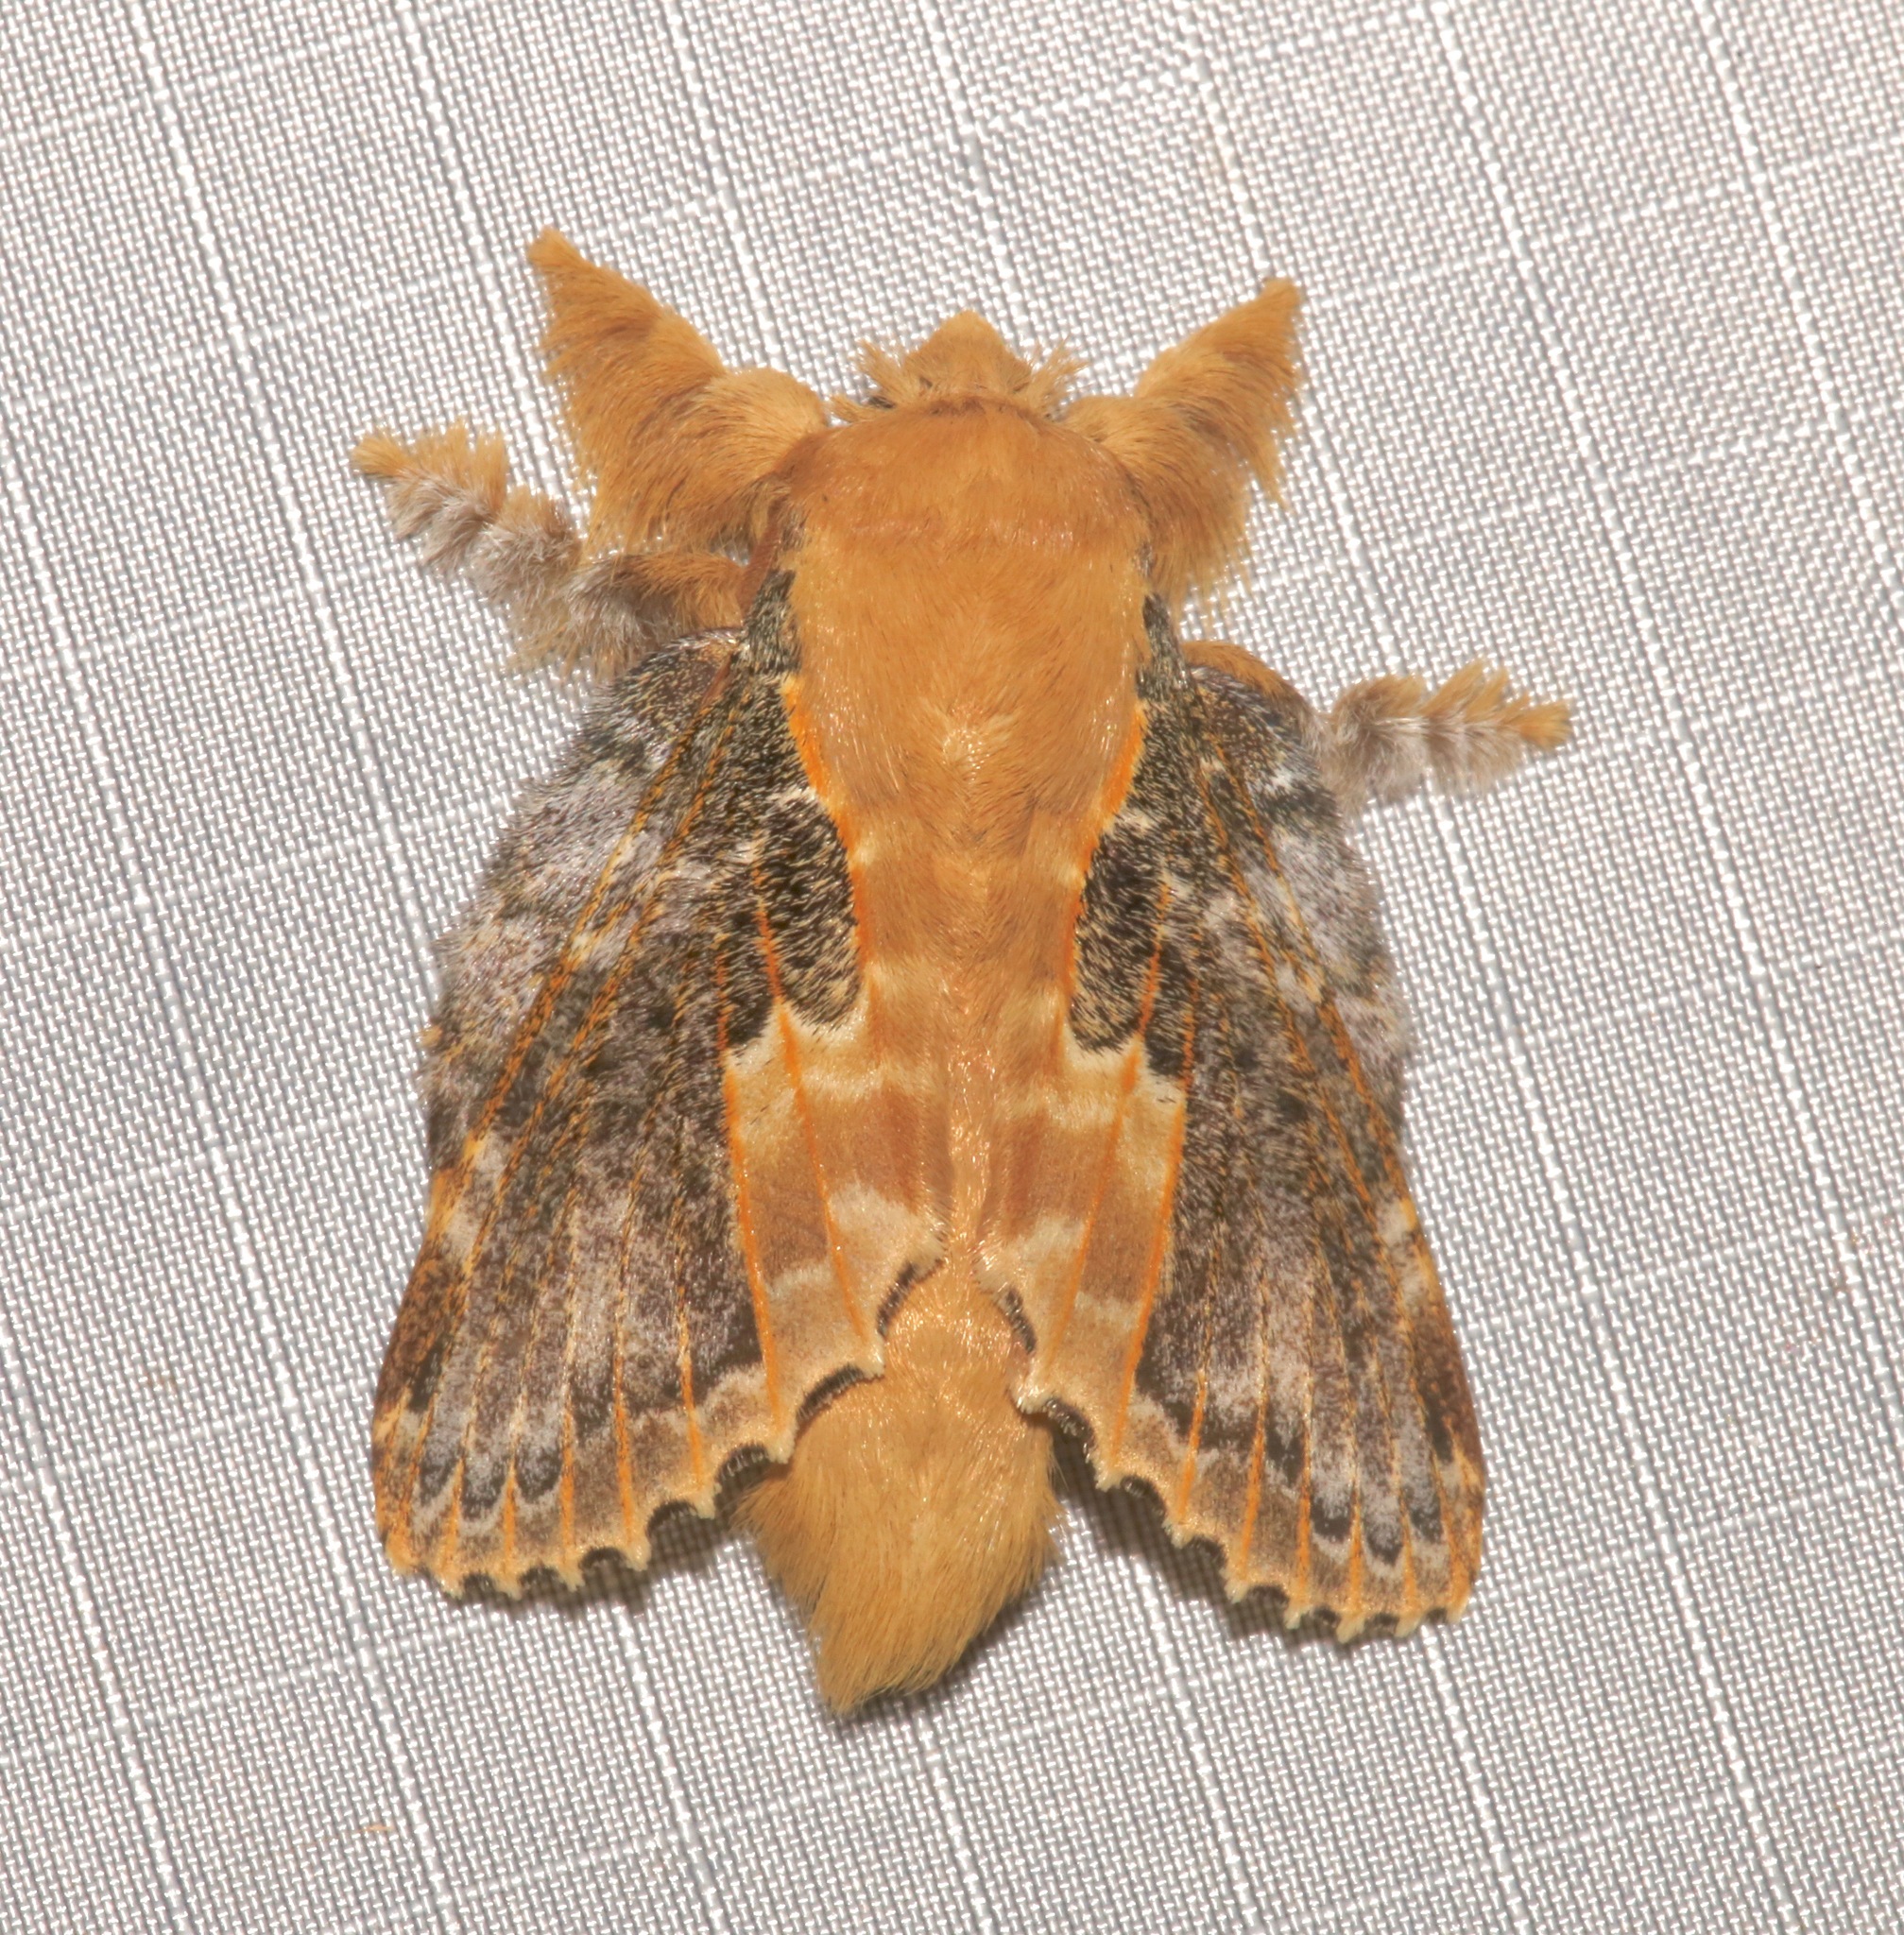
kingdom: Animalia
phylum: Arthropoda
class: Insecta
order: Lepidoptera
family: Lasiocampidae
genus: Euglyphis
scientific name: Euglyphis claudia
